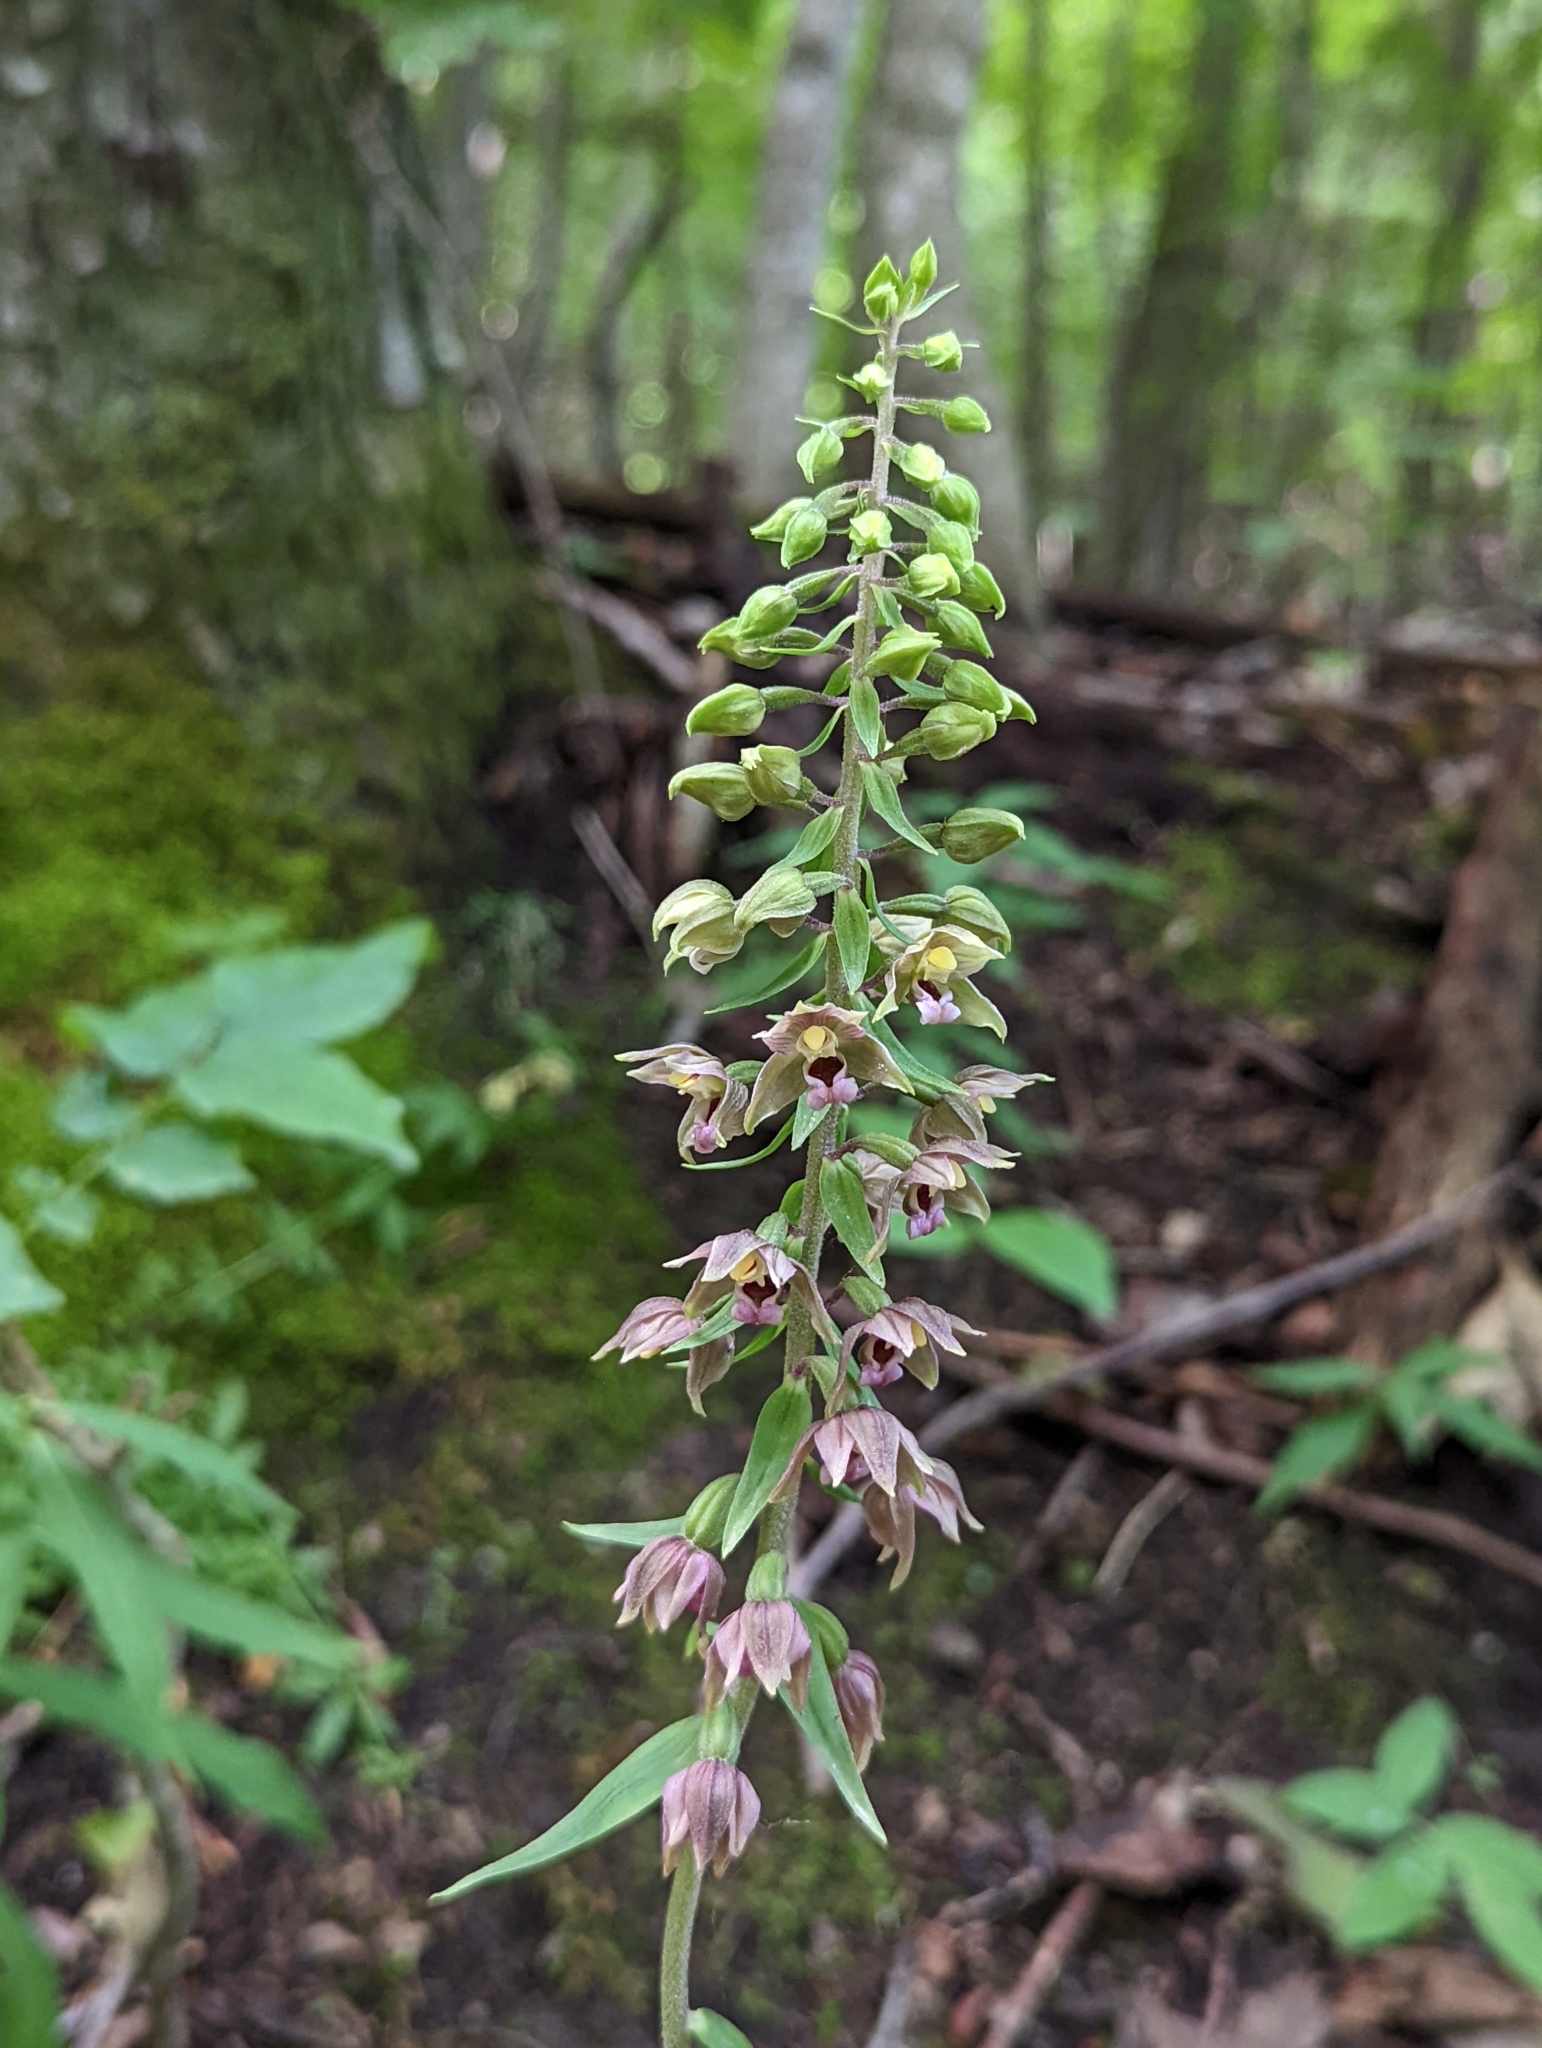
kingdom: Plantae
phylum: Tracheophyta
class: Liliopsida
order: Asparagales
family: Orchidaceae
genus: Epipactis
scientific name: Epipactis helleborine
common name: Broad-leaved helleborine
